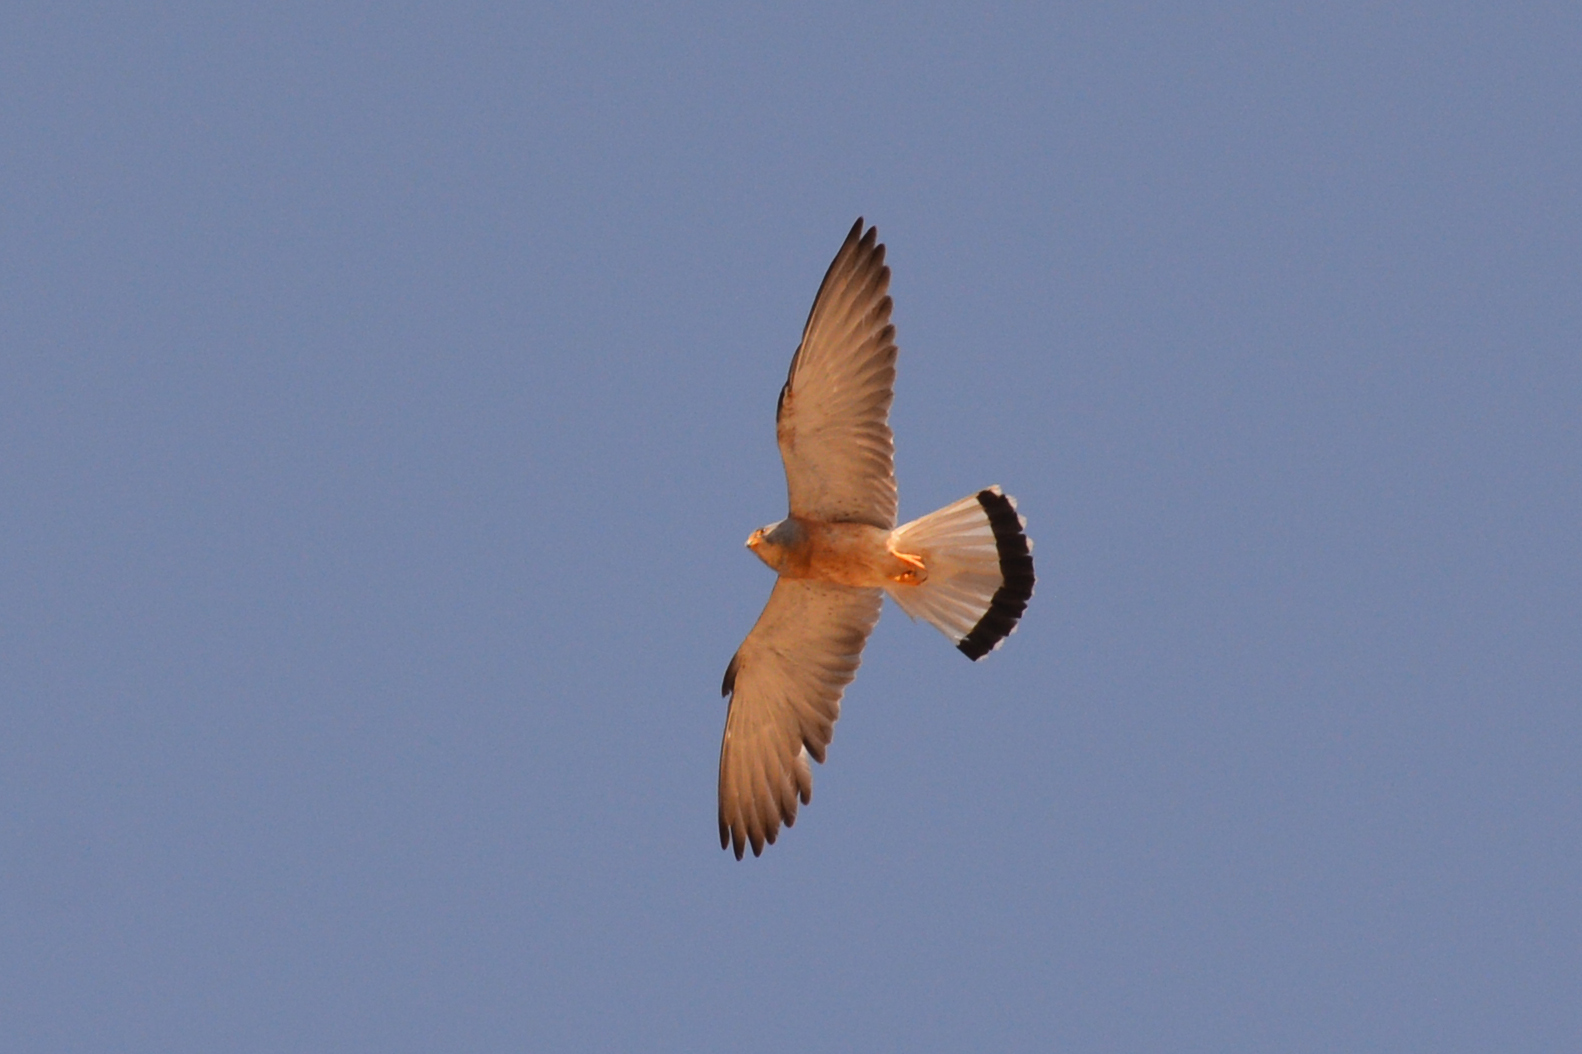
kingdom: Animalia
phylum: Chordata
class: Aves
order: Falconiformes
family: Falconidae
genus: Falco
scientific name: Falco naumanni
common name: Lesser kestrel
